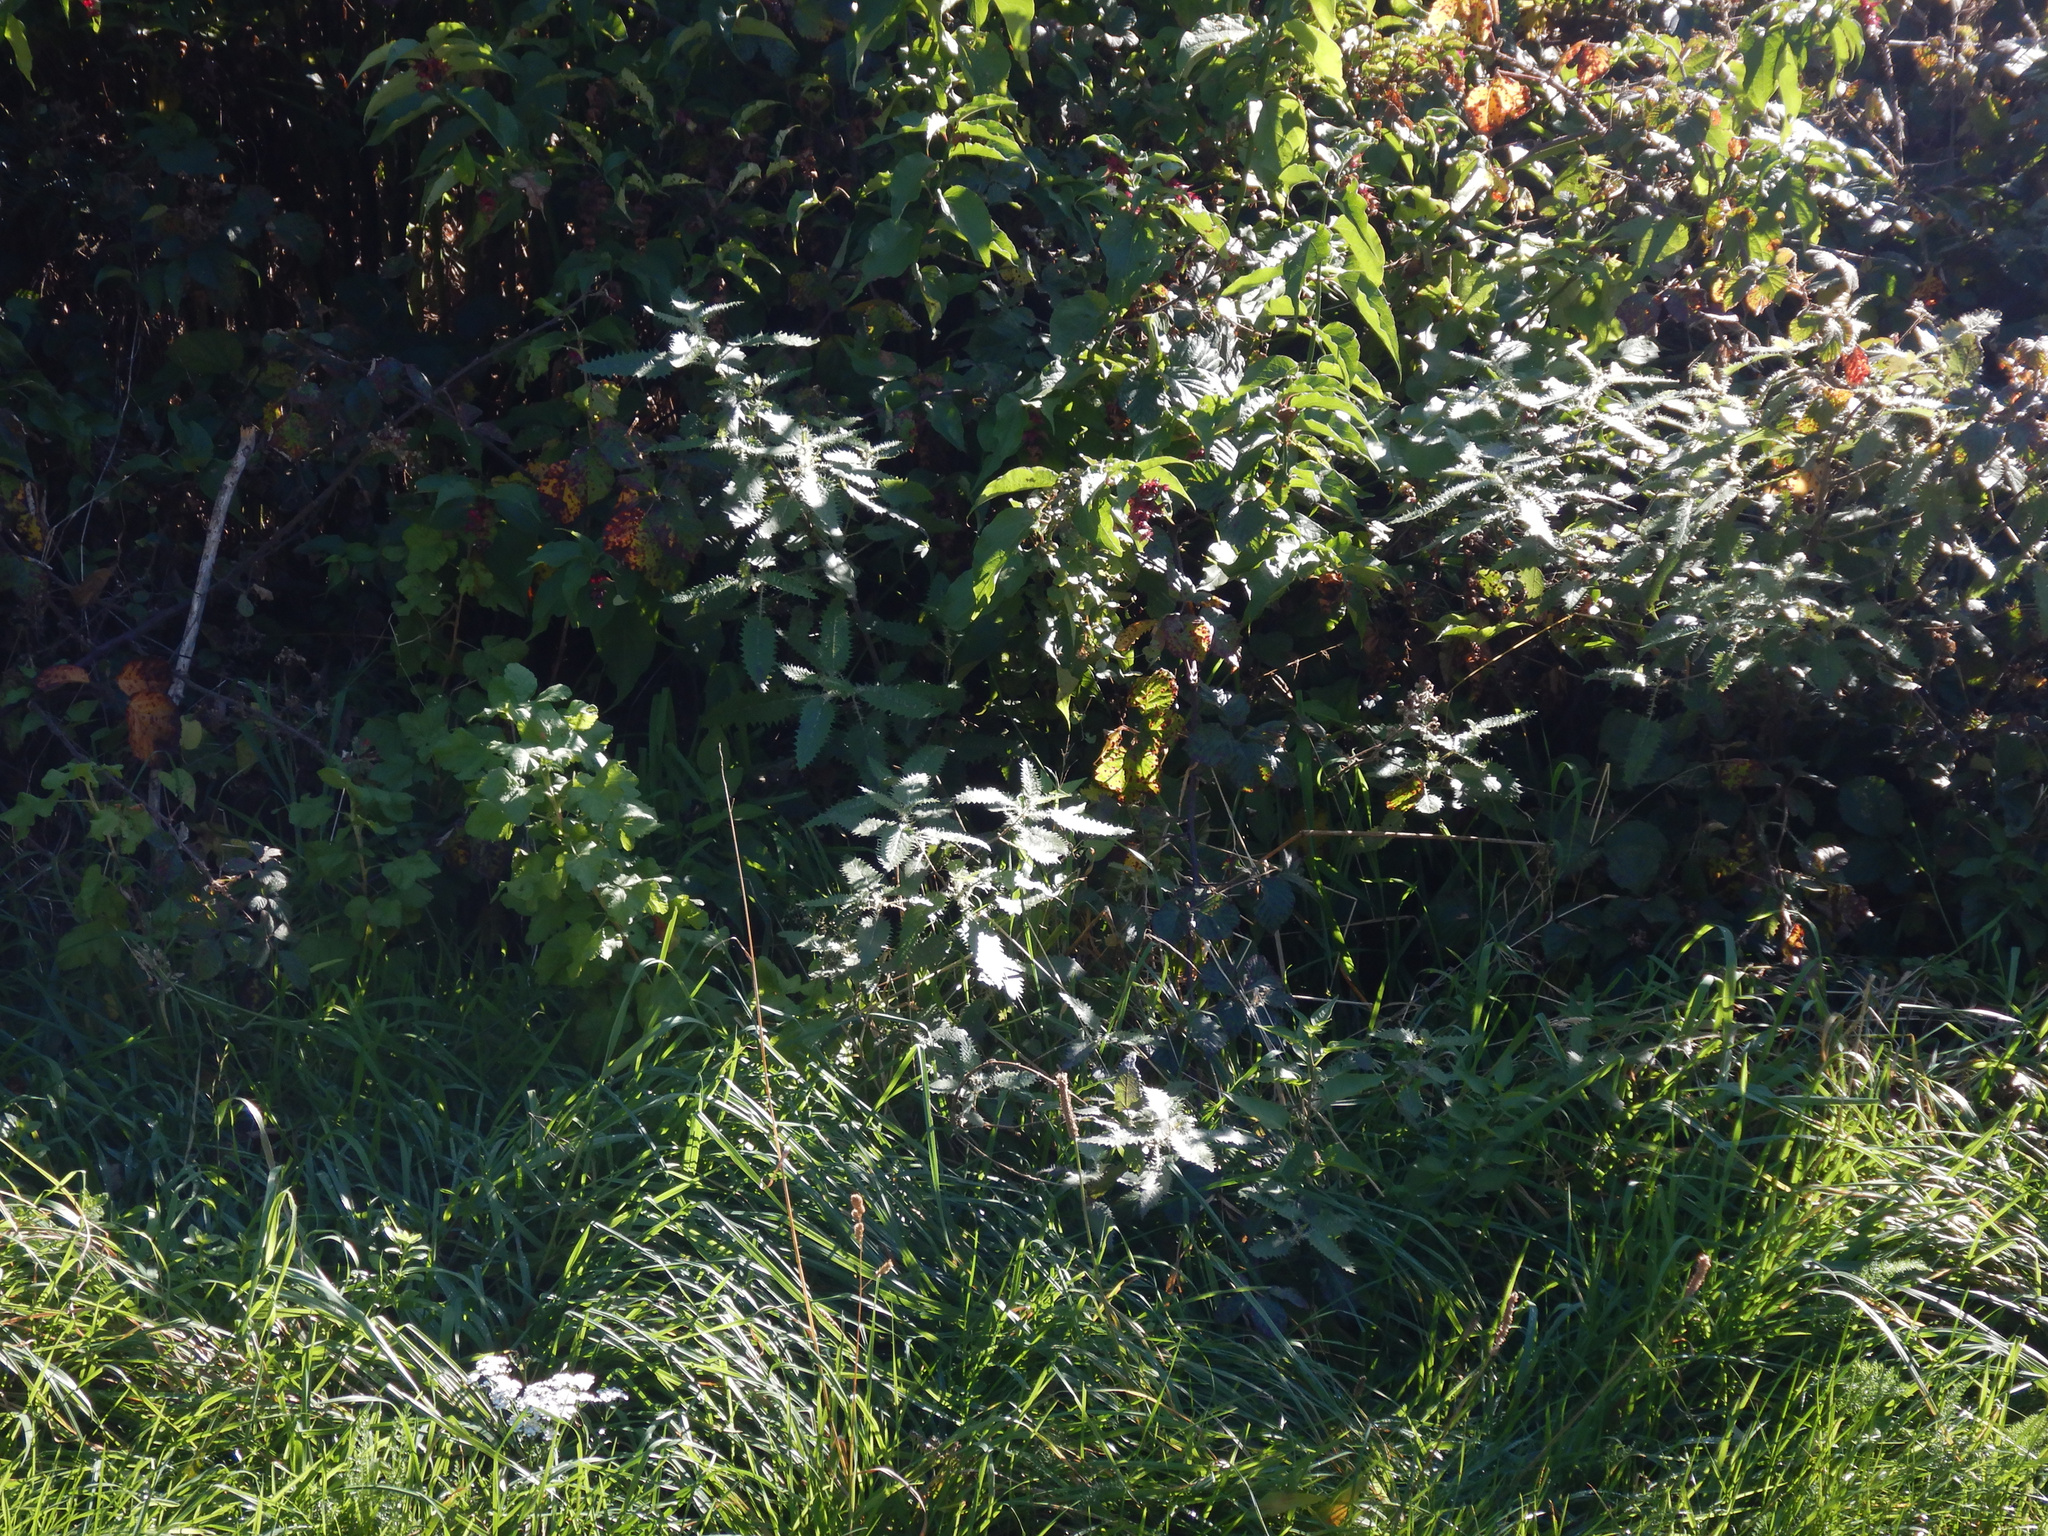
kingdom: Plantae
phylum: Tracheophyta
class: Magnoliopsida
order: Saxifragales
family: Grossulariaceae
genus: Ribes
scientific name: Ribes sanguineum
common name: Flowering currant
